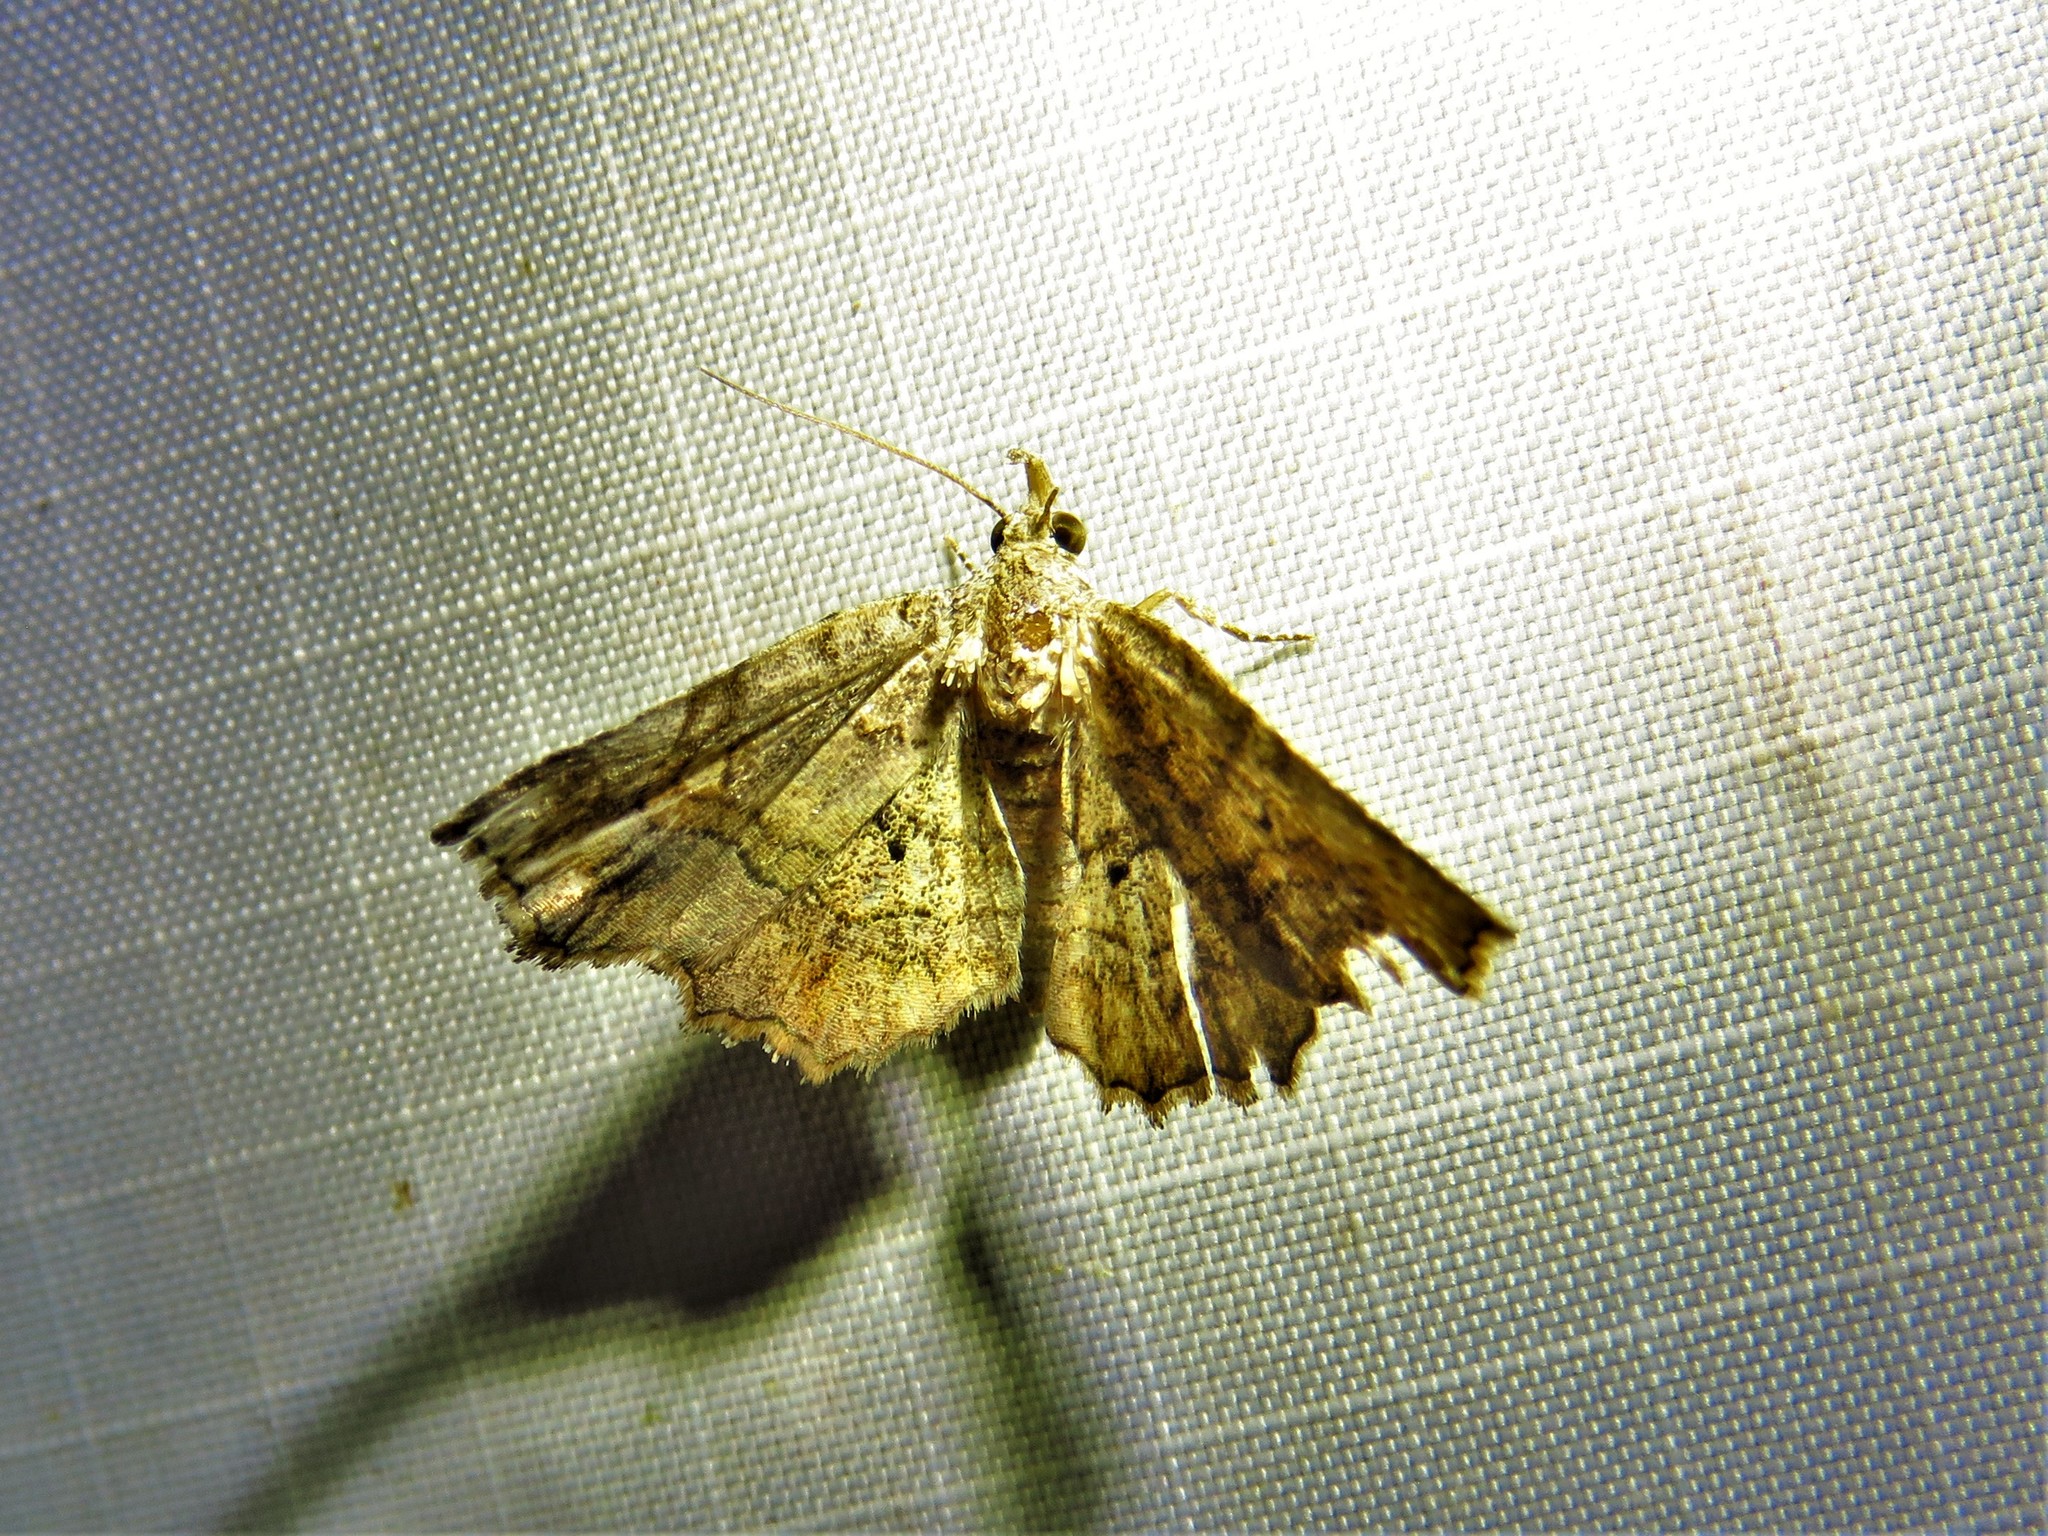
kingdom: Animalia
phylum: Arthropoda
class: Insecta
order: Lepidoptera
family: Erebidae
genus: Pangrapta
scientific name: Pangrapta decoralis
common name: Decorated owlet
